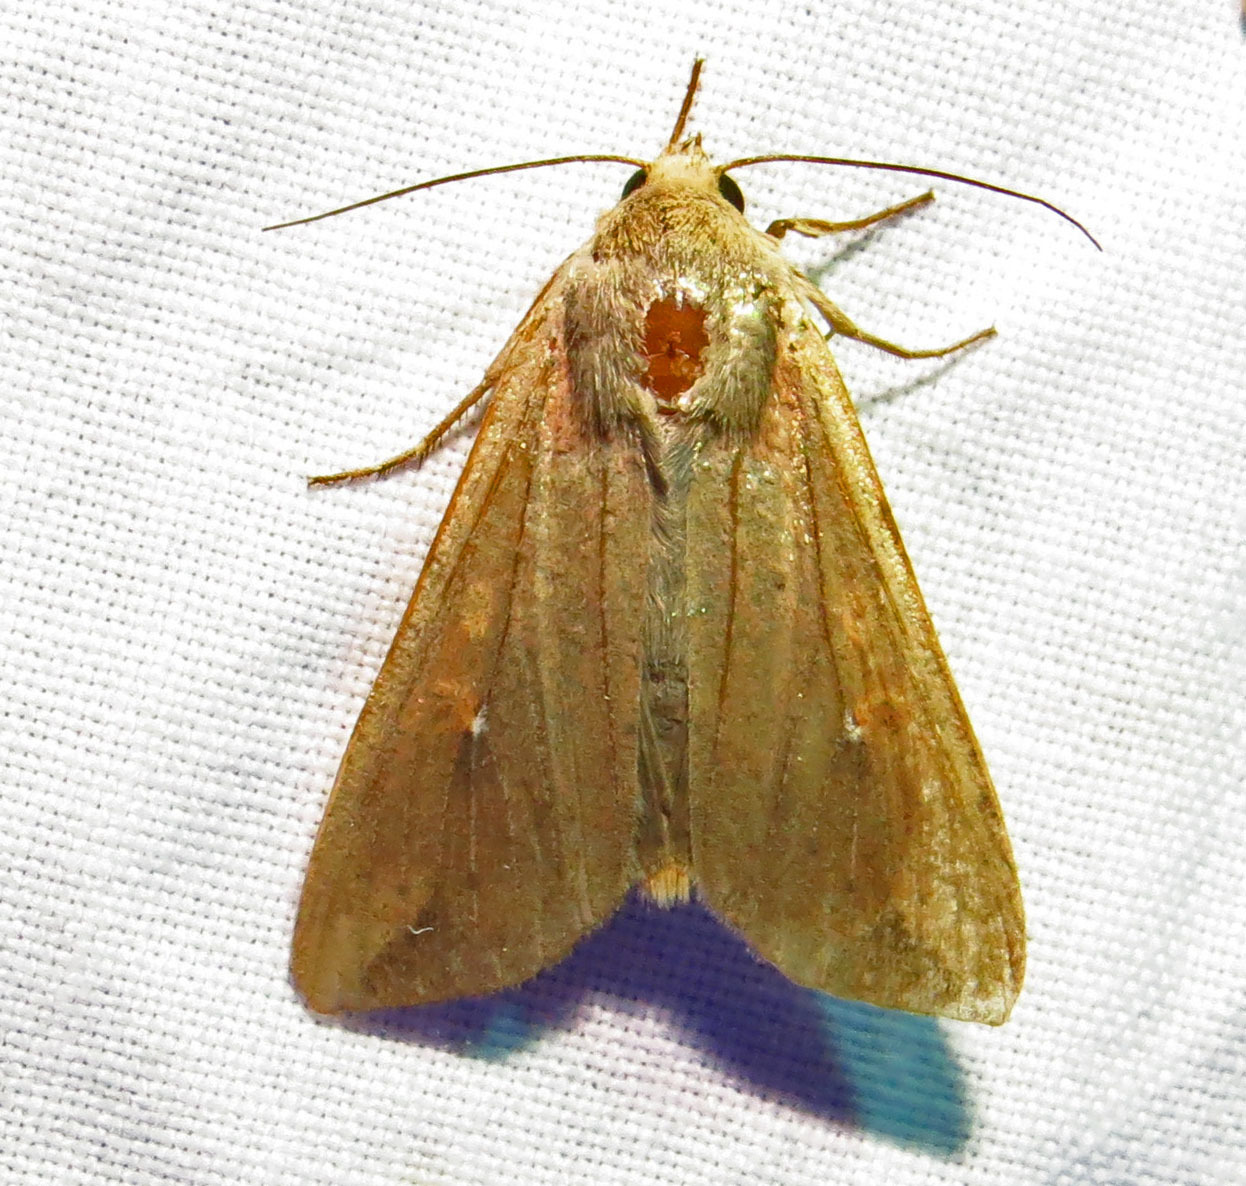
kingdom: Animalia
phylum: Arthropoda
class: Insecta
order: Lepidoptera
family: Noctuidae
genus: Mythimna
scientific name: Mythimna unipuncta
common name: White-speck
